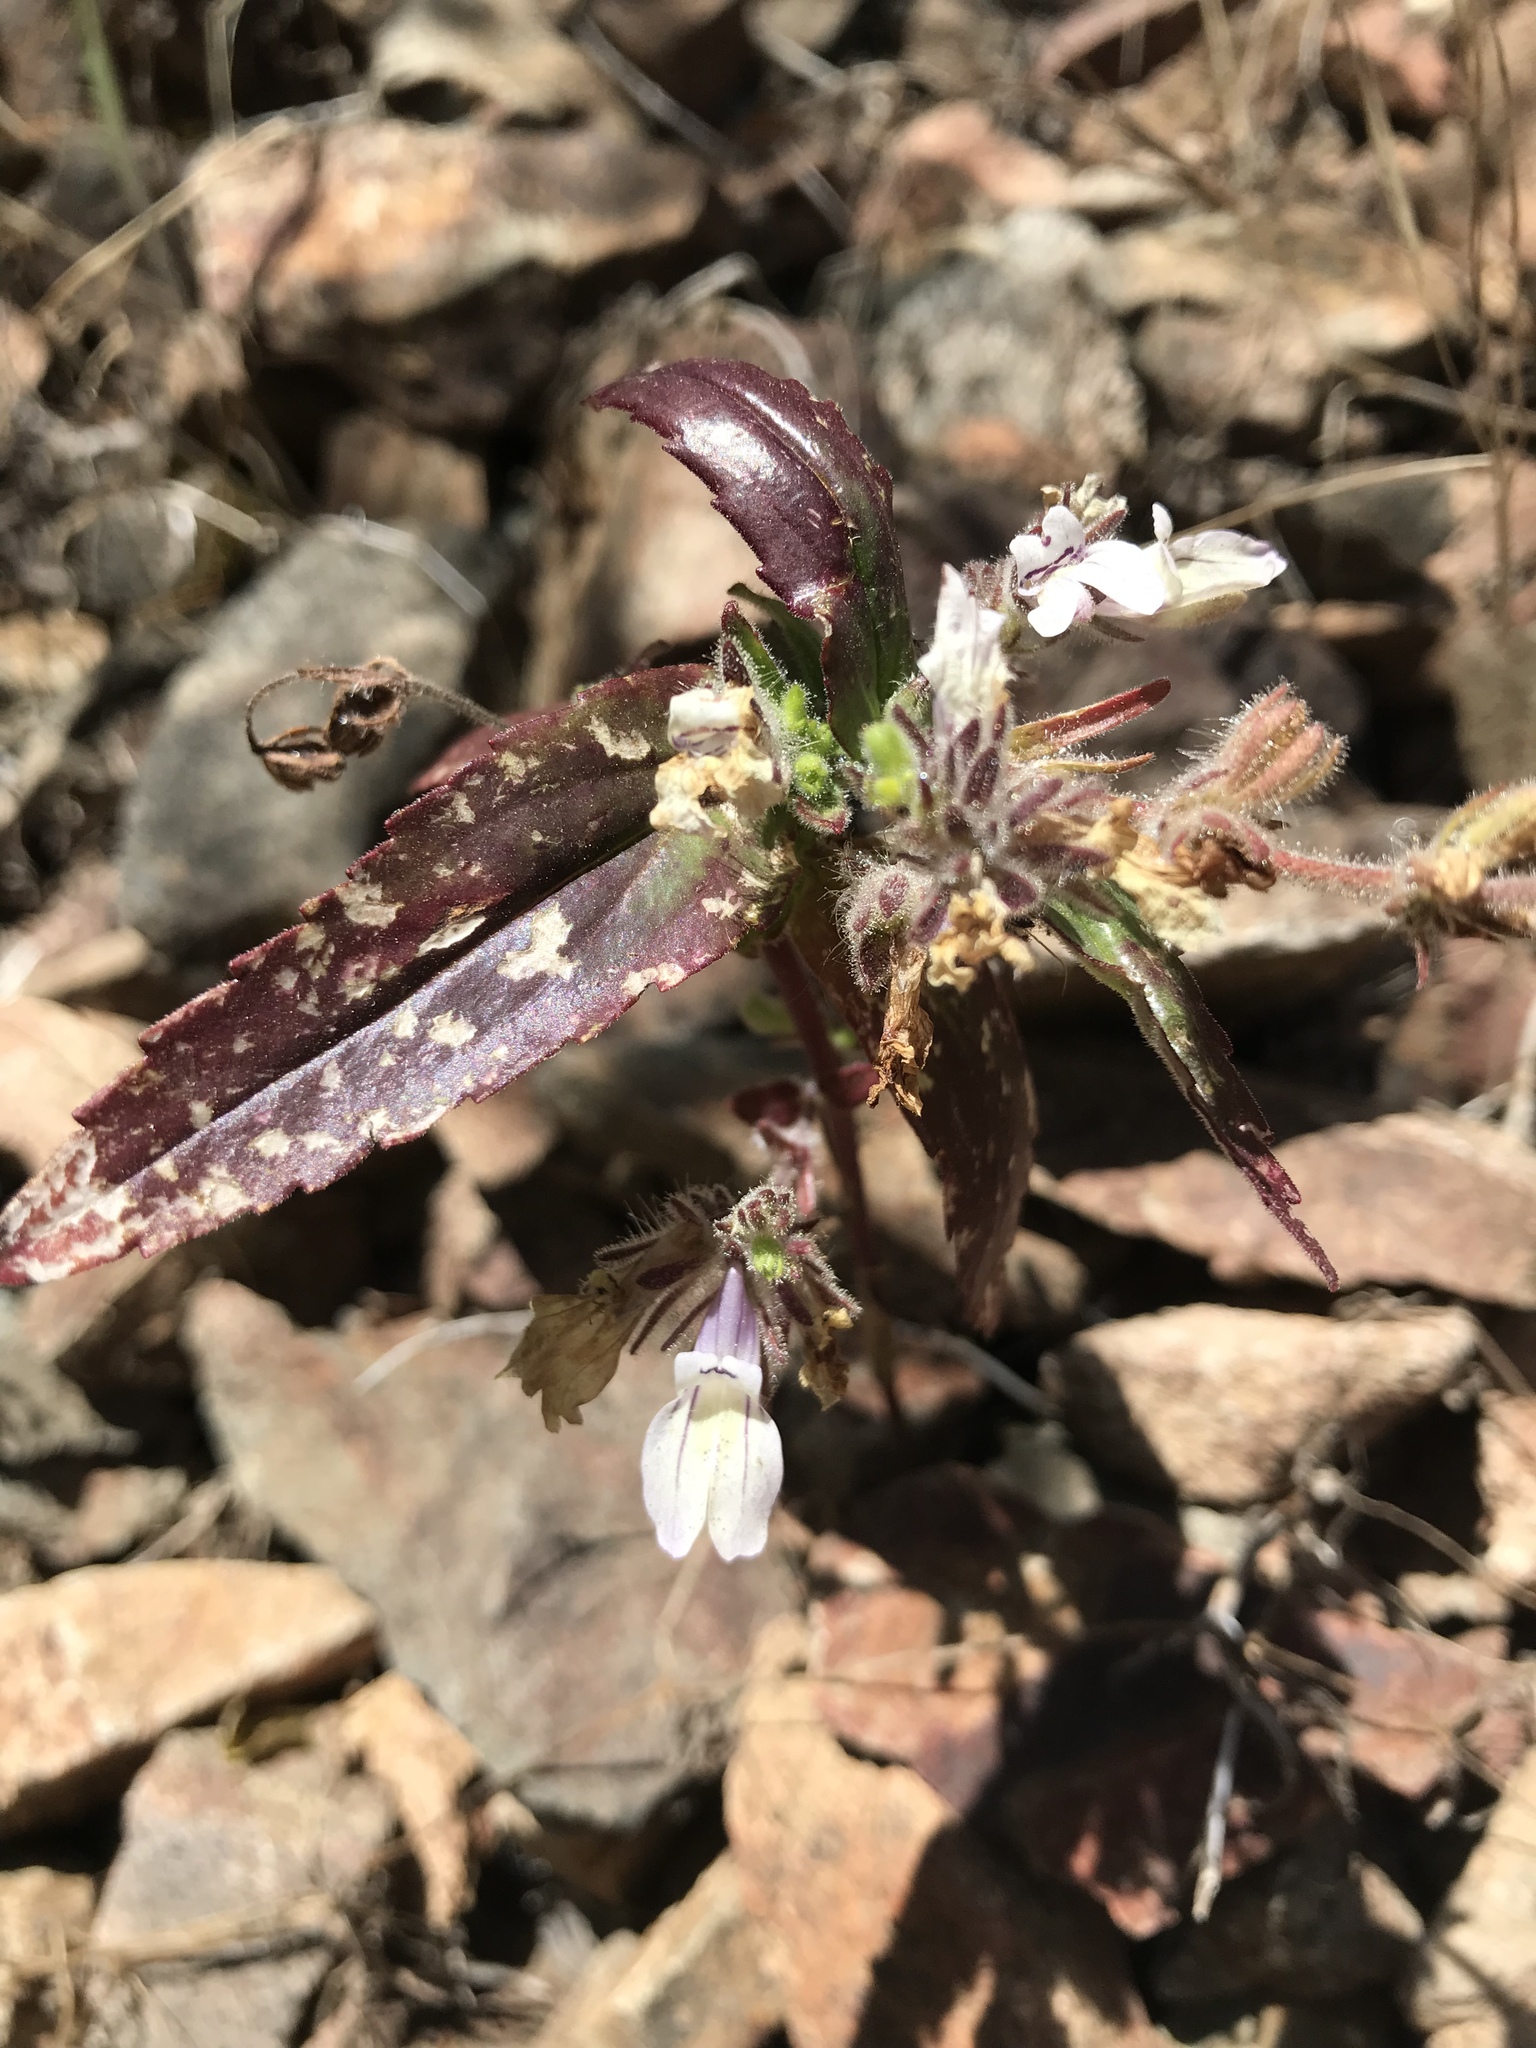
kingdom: Plantae
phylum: Tracheophyta
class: Magnoliopsida
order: Lamiales
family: Plantaginaceae
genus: Collinsia
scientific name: Collinsia tinctoria
